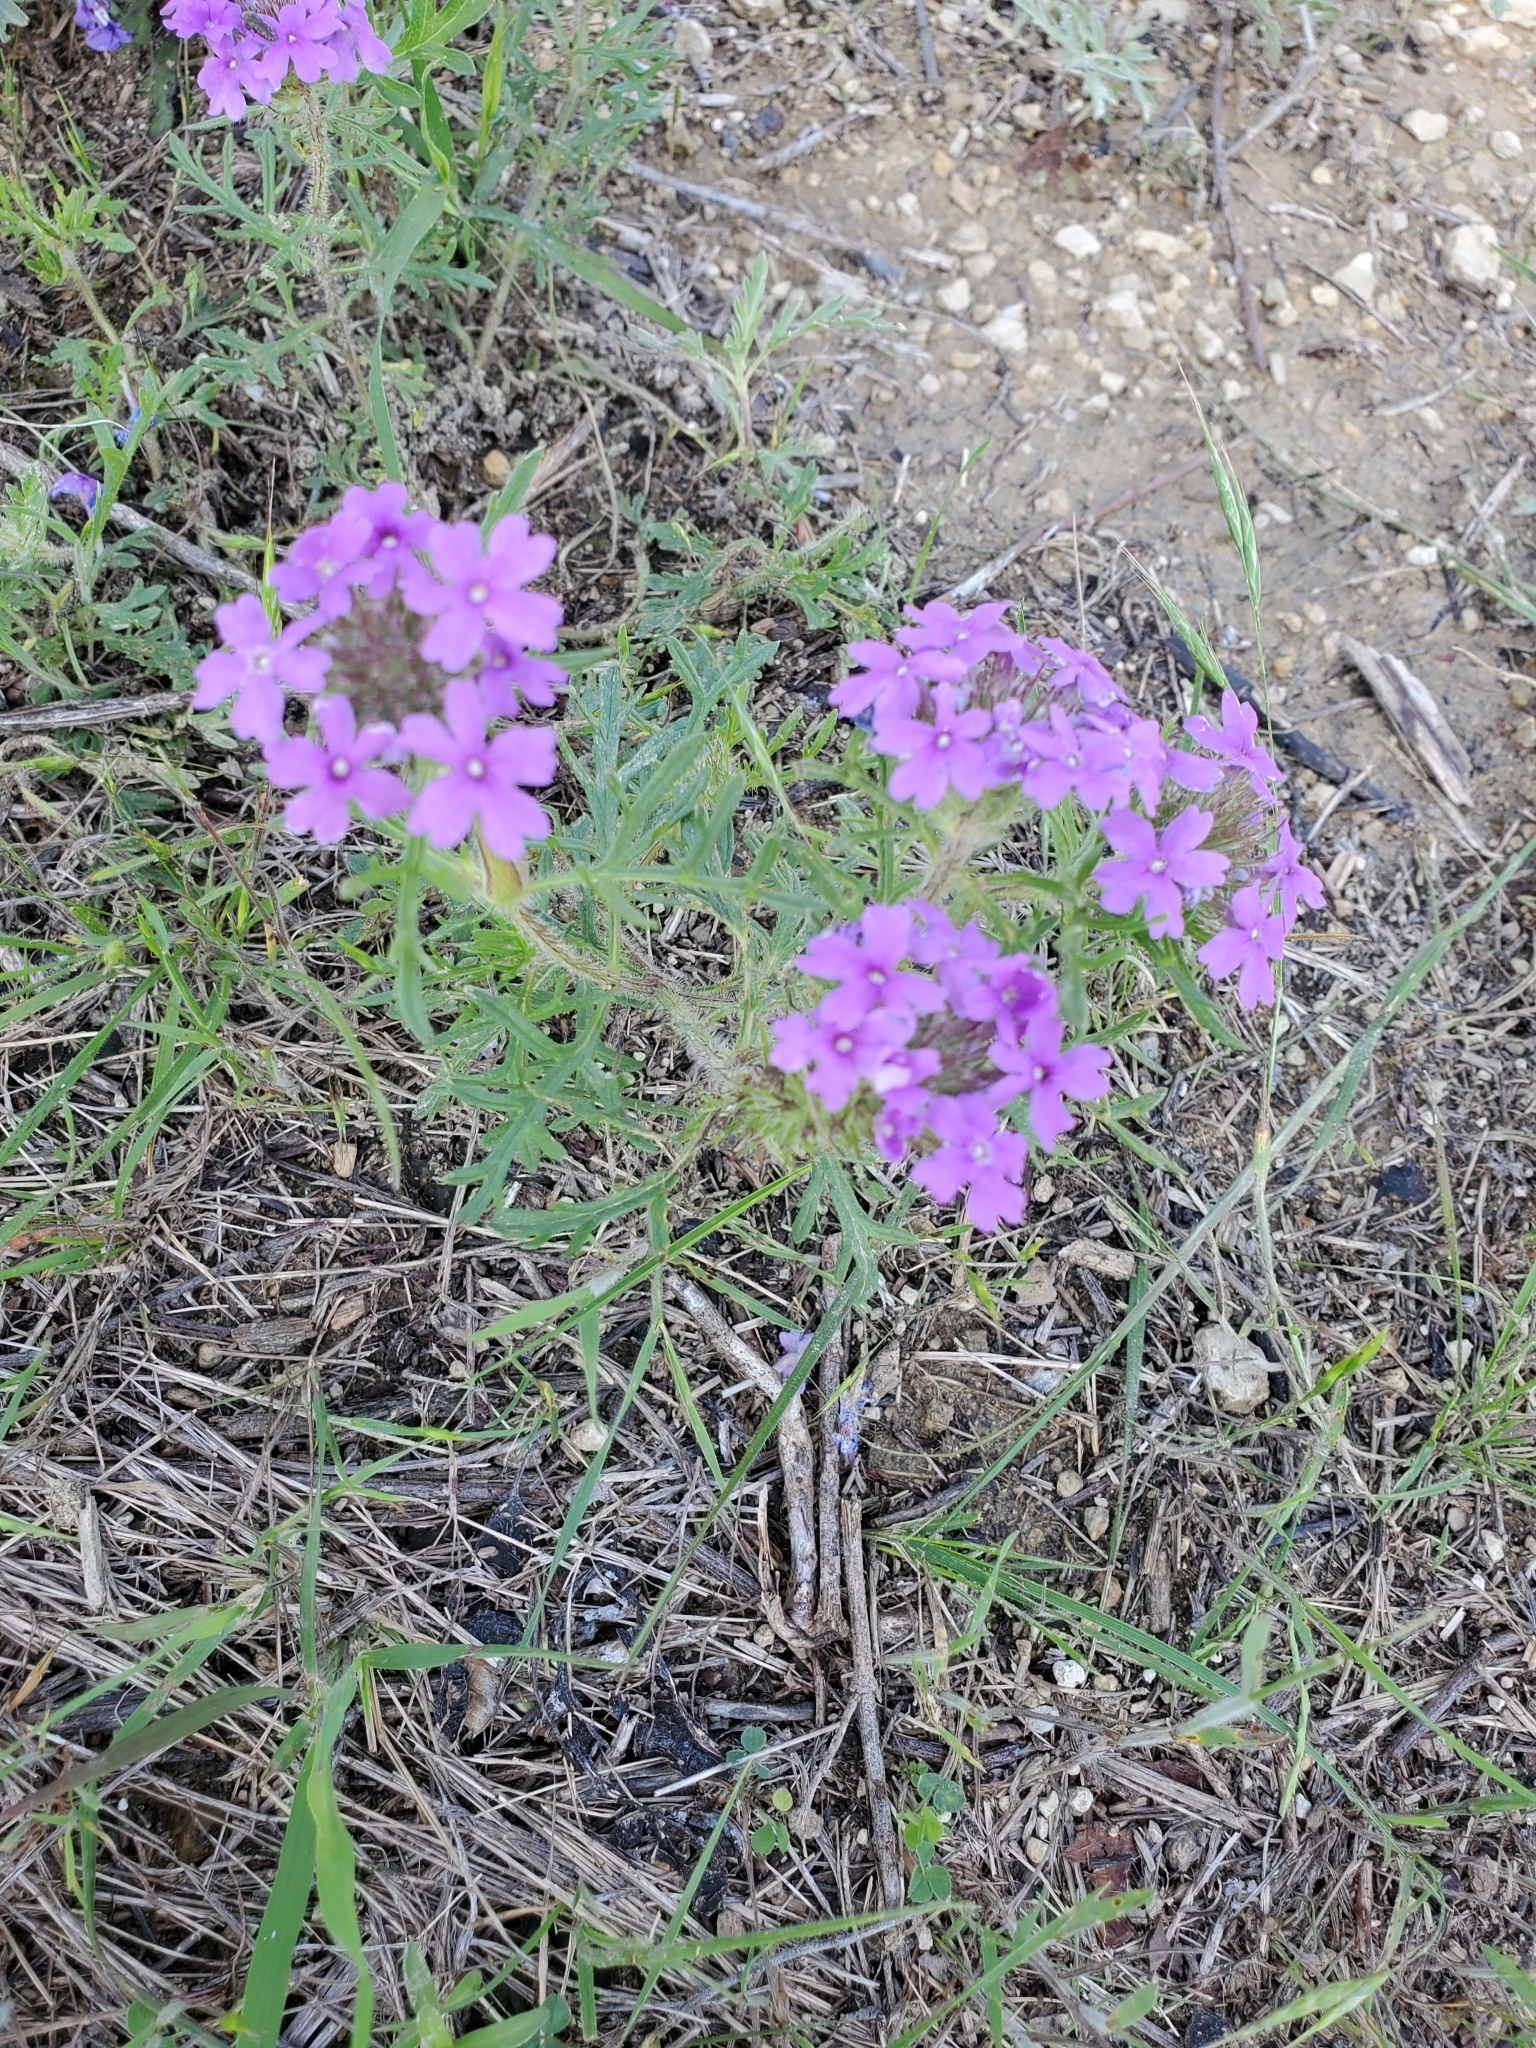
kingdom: Plantae
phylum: Tracheophyta
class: Magnoliopsida
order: Lamiales
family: Verbenaceae
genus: Verbena
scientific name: Verbena bipinnatifida
